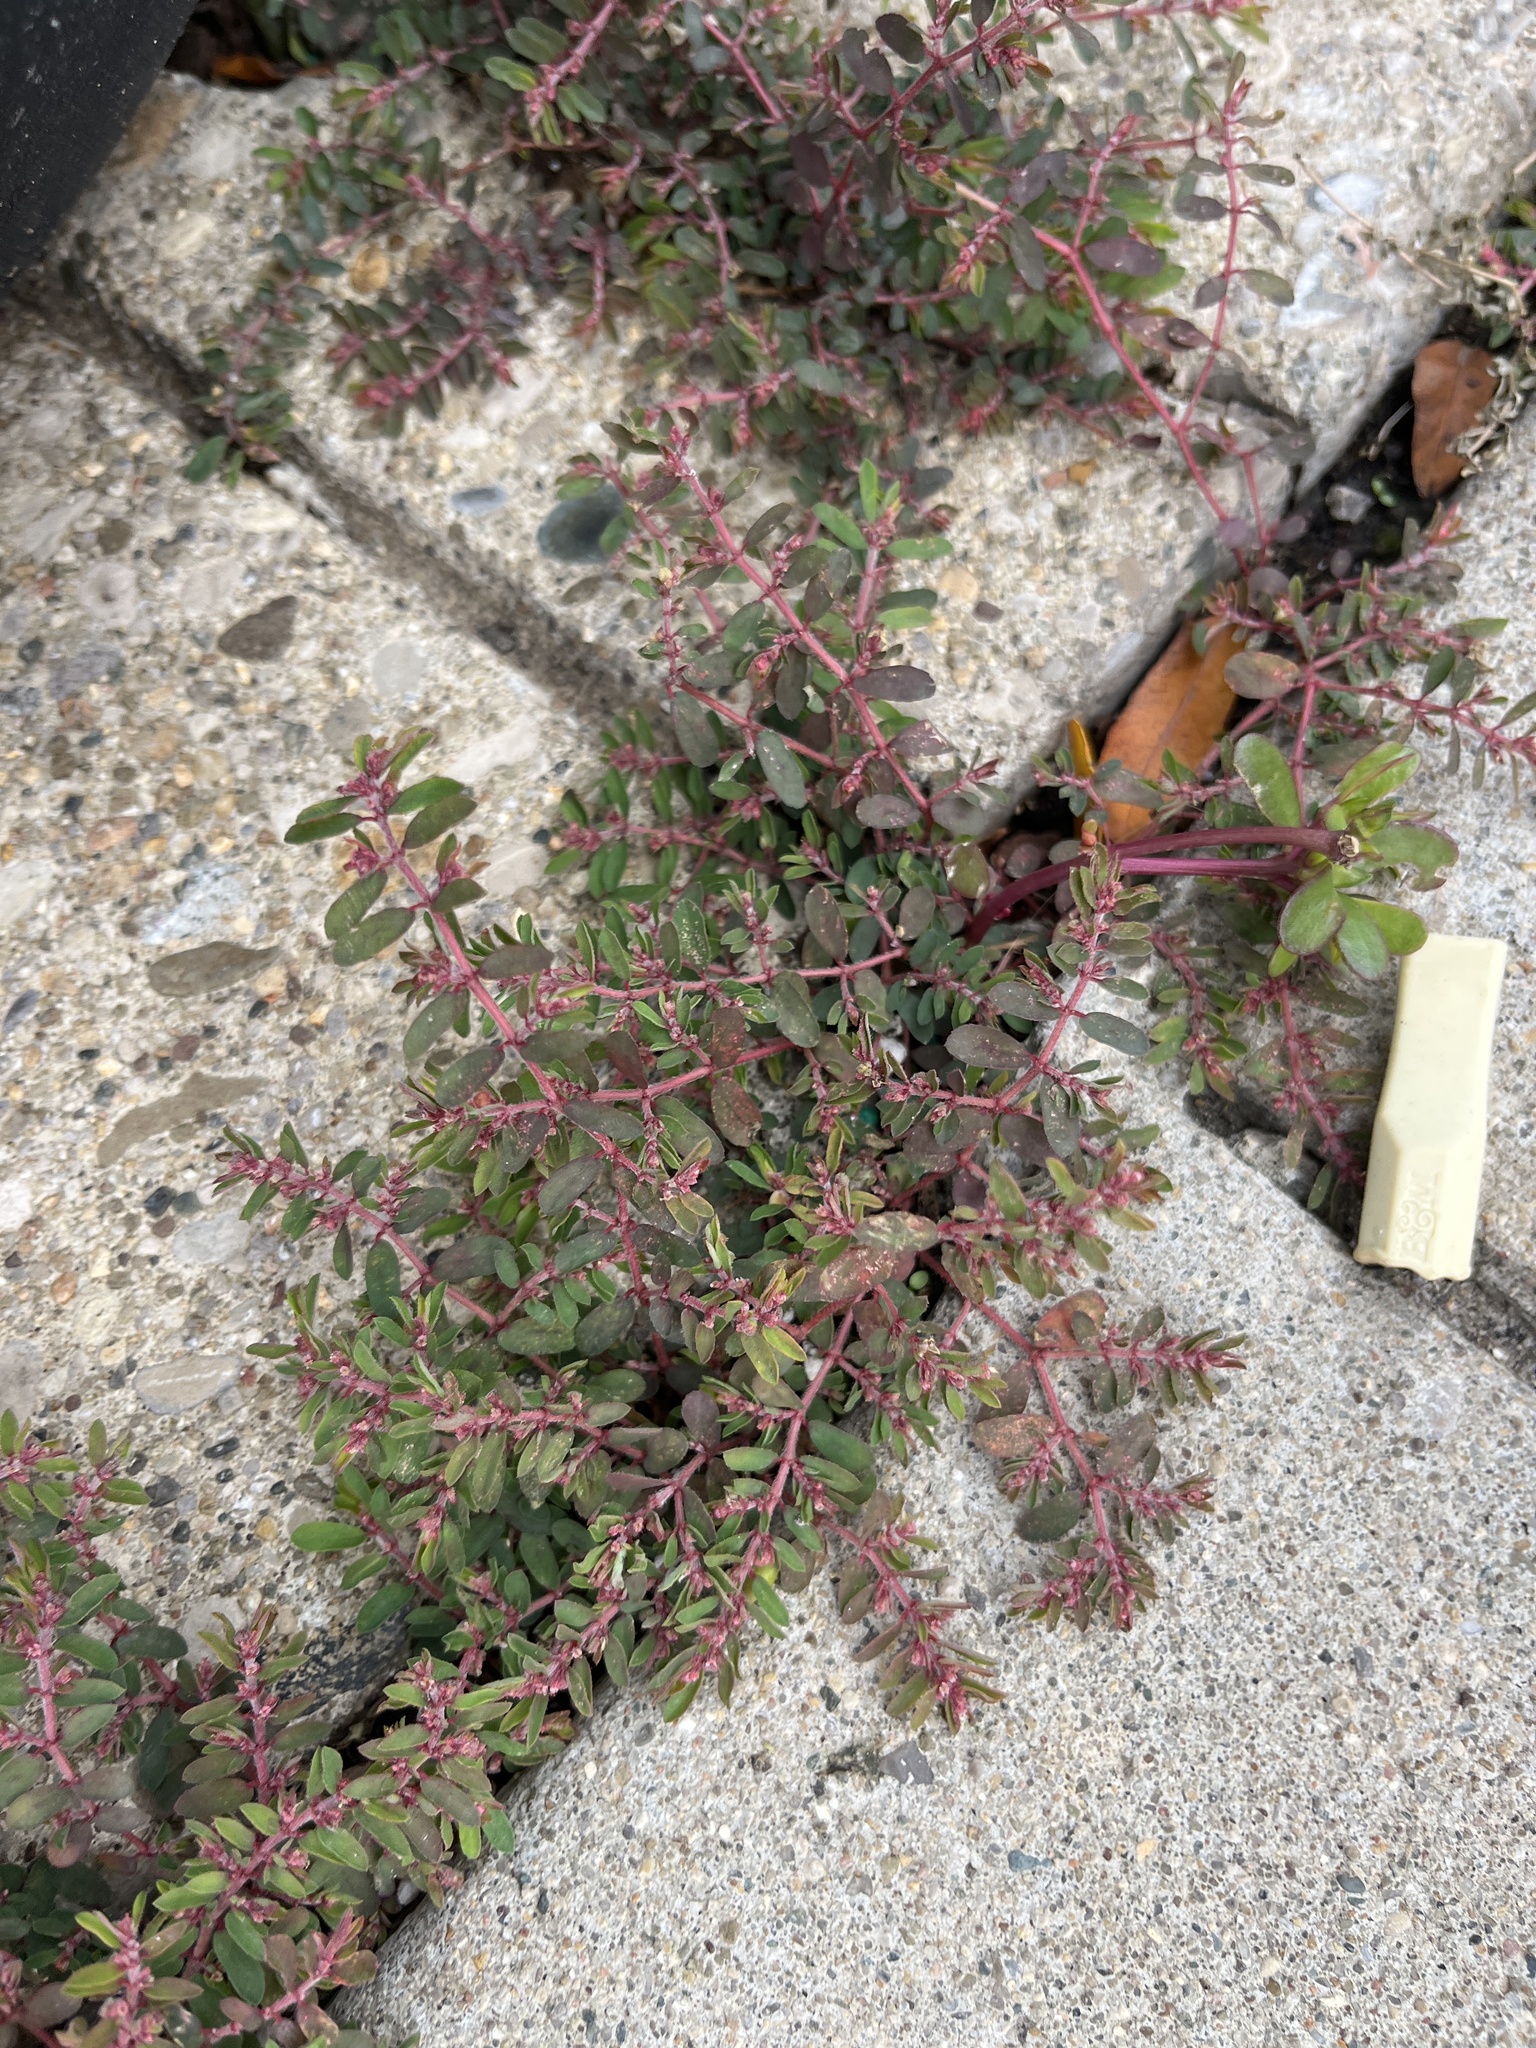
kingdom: Plantae
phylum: Tracheophyta
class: Magnoliopsida
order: Malpighiales
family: Euphorbiaceae
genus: Euphorbia
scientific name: Euphorbia maculata
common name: Spotted spurge
